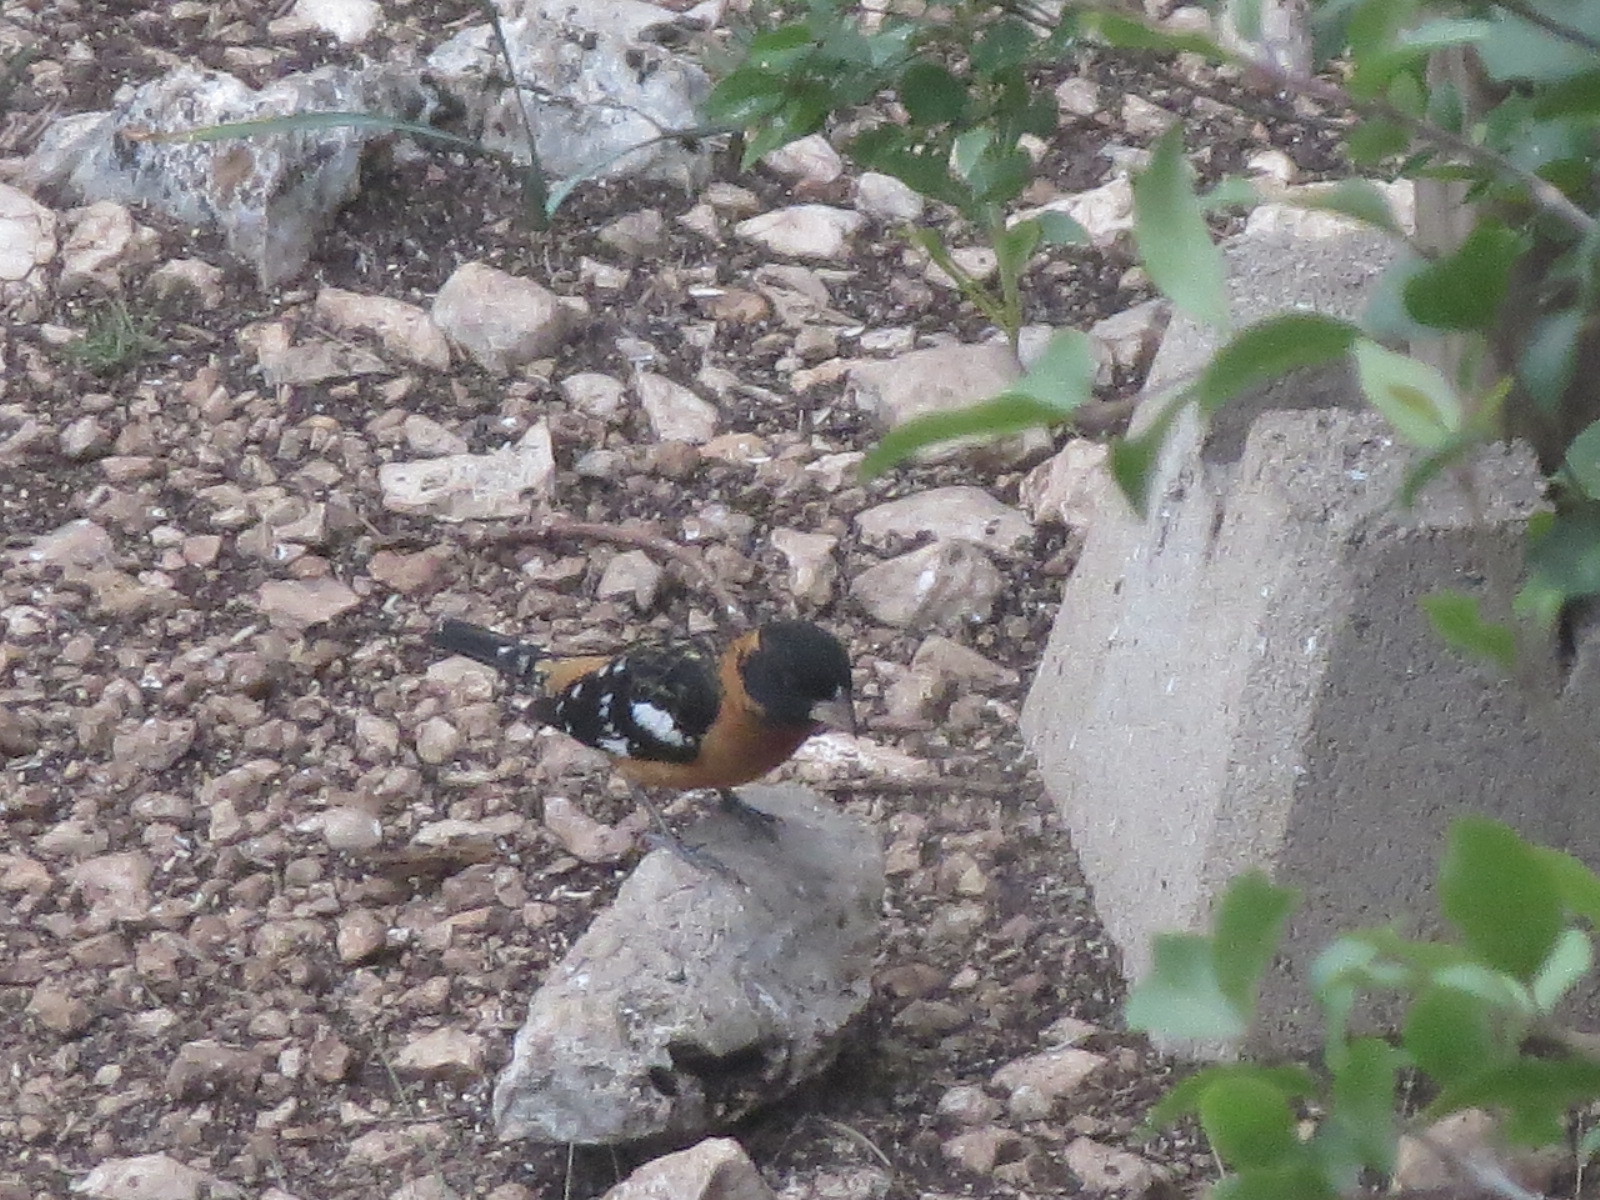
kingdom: Animalia
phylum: Chordata
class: Aves
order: Passeriformes
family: Cardinalidae
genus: Pheucticus
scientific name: Pheucticus melanocephalus
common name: Black-headed grosbeak
